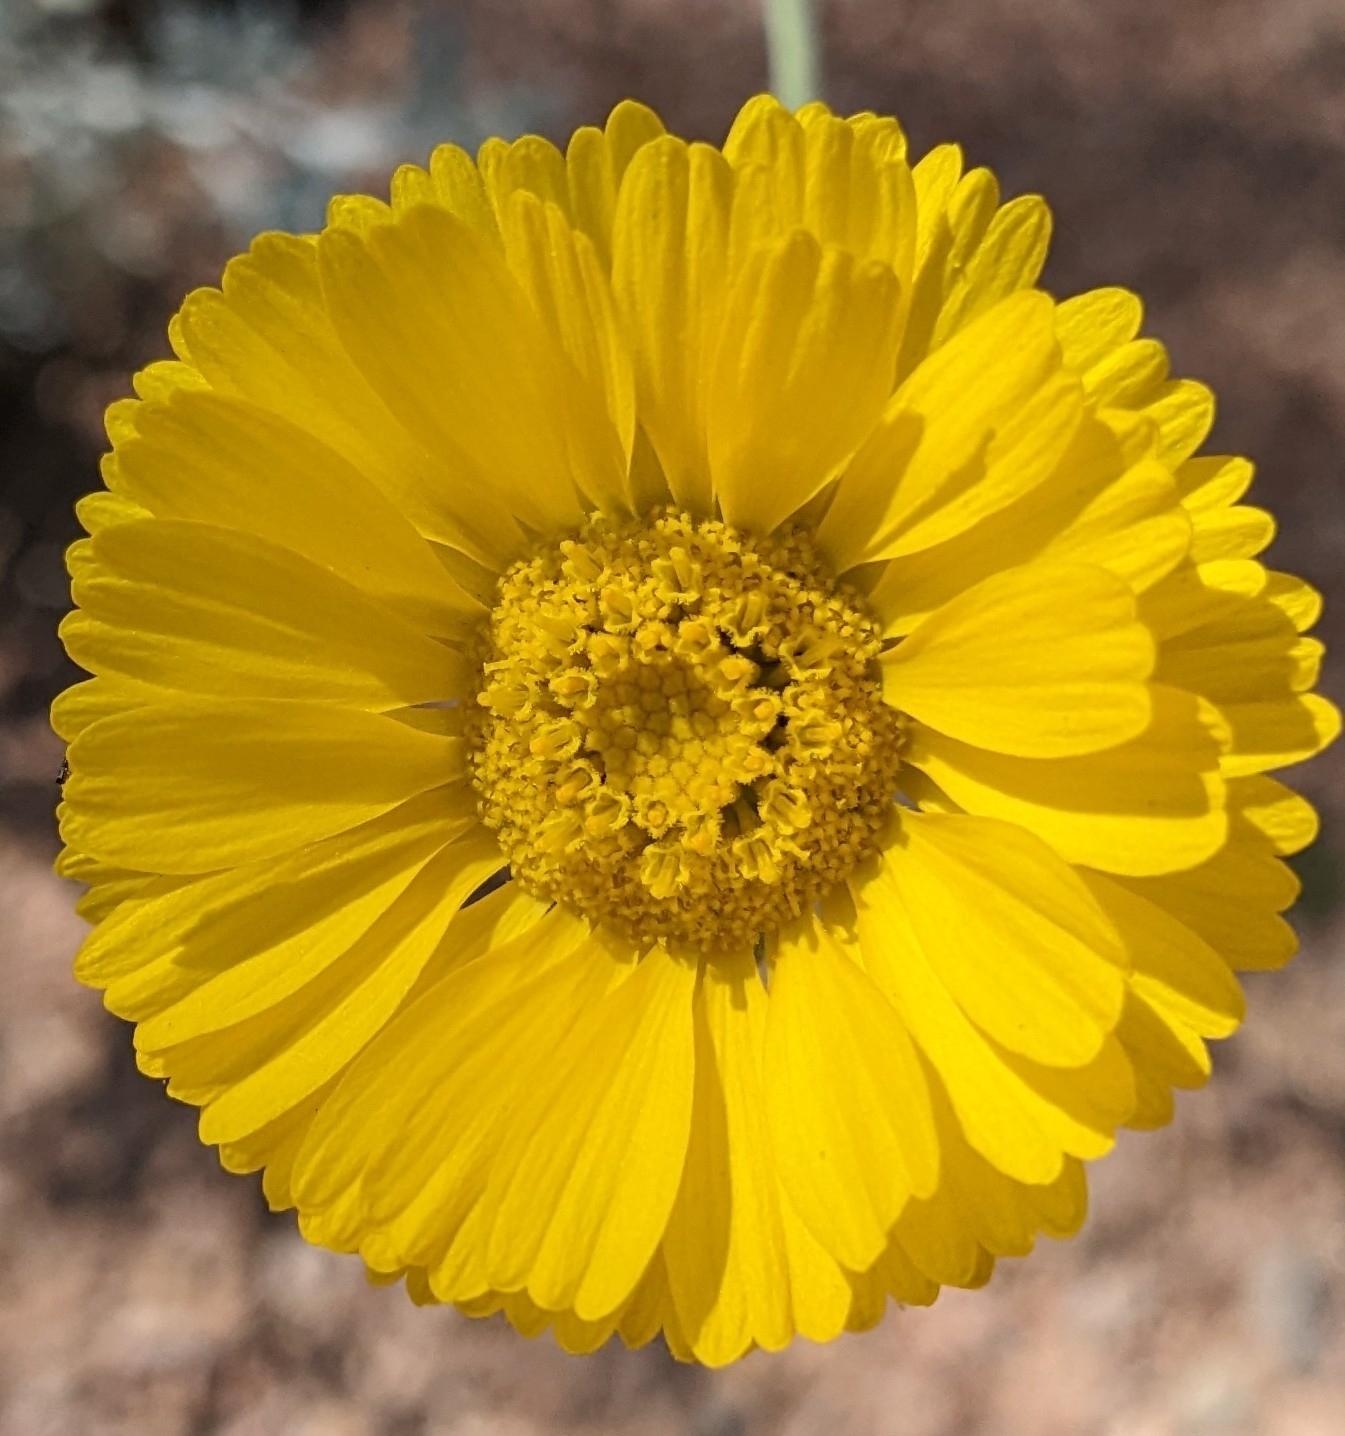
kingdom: Plantae
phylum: Tracheophyta
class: Magnoliopsida
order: Asterales
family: Asteraceae
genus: Baileya
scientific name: Baileya multiradiata
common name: Desert-marigold
